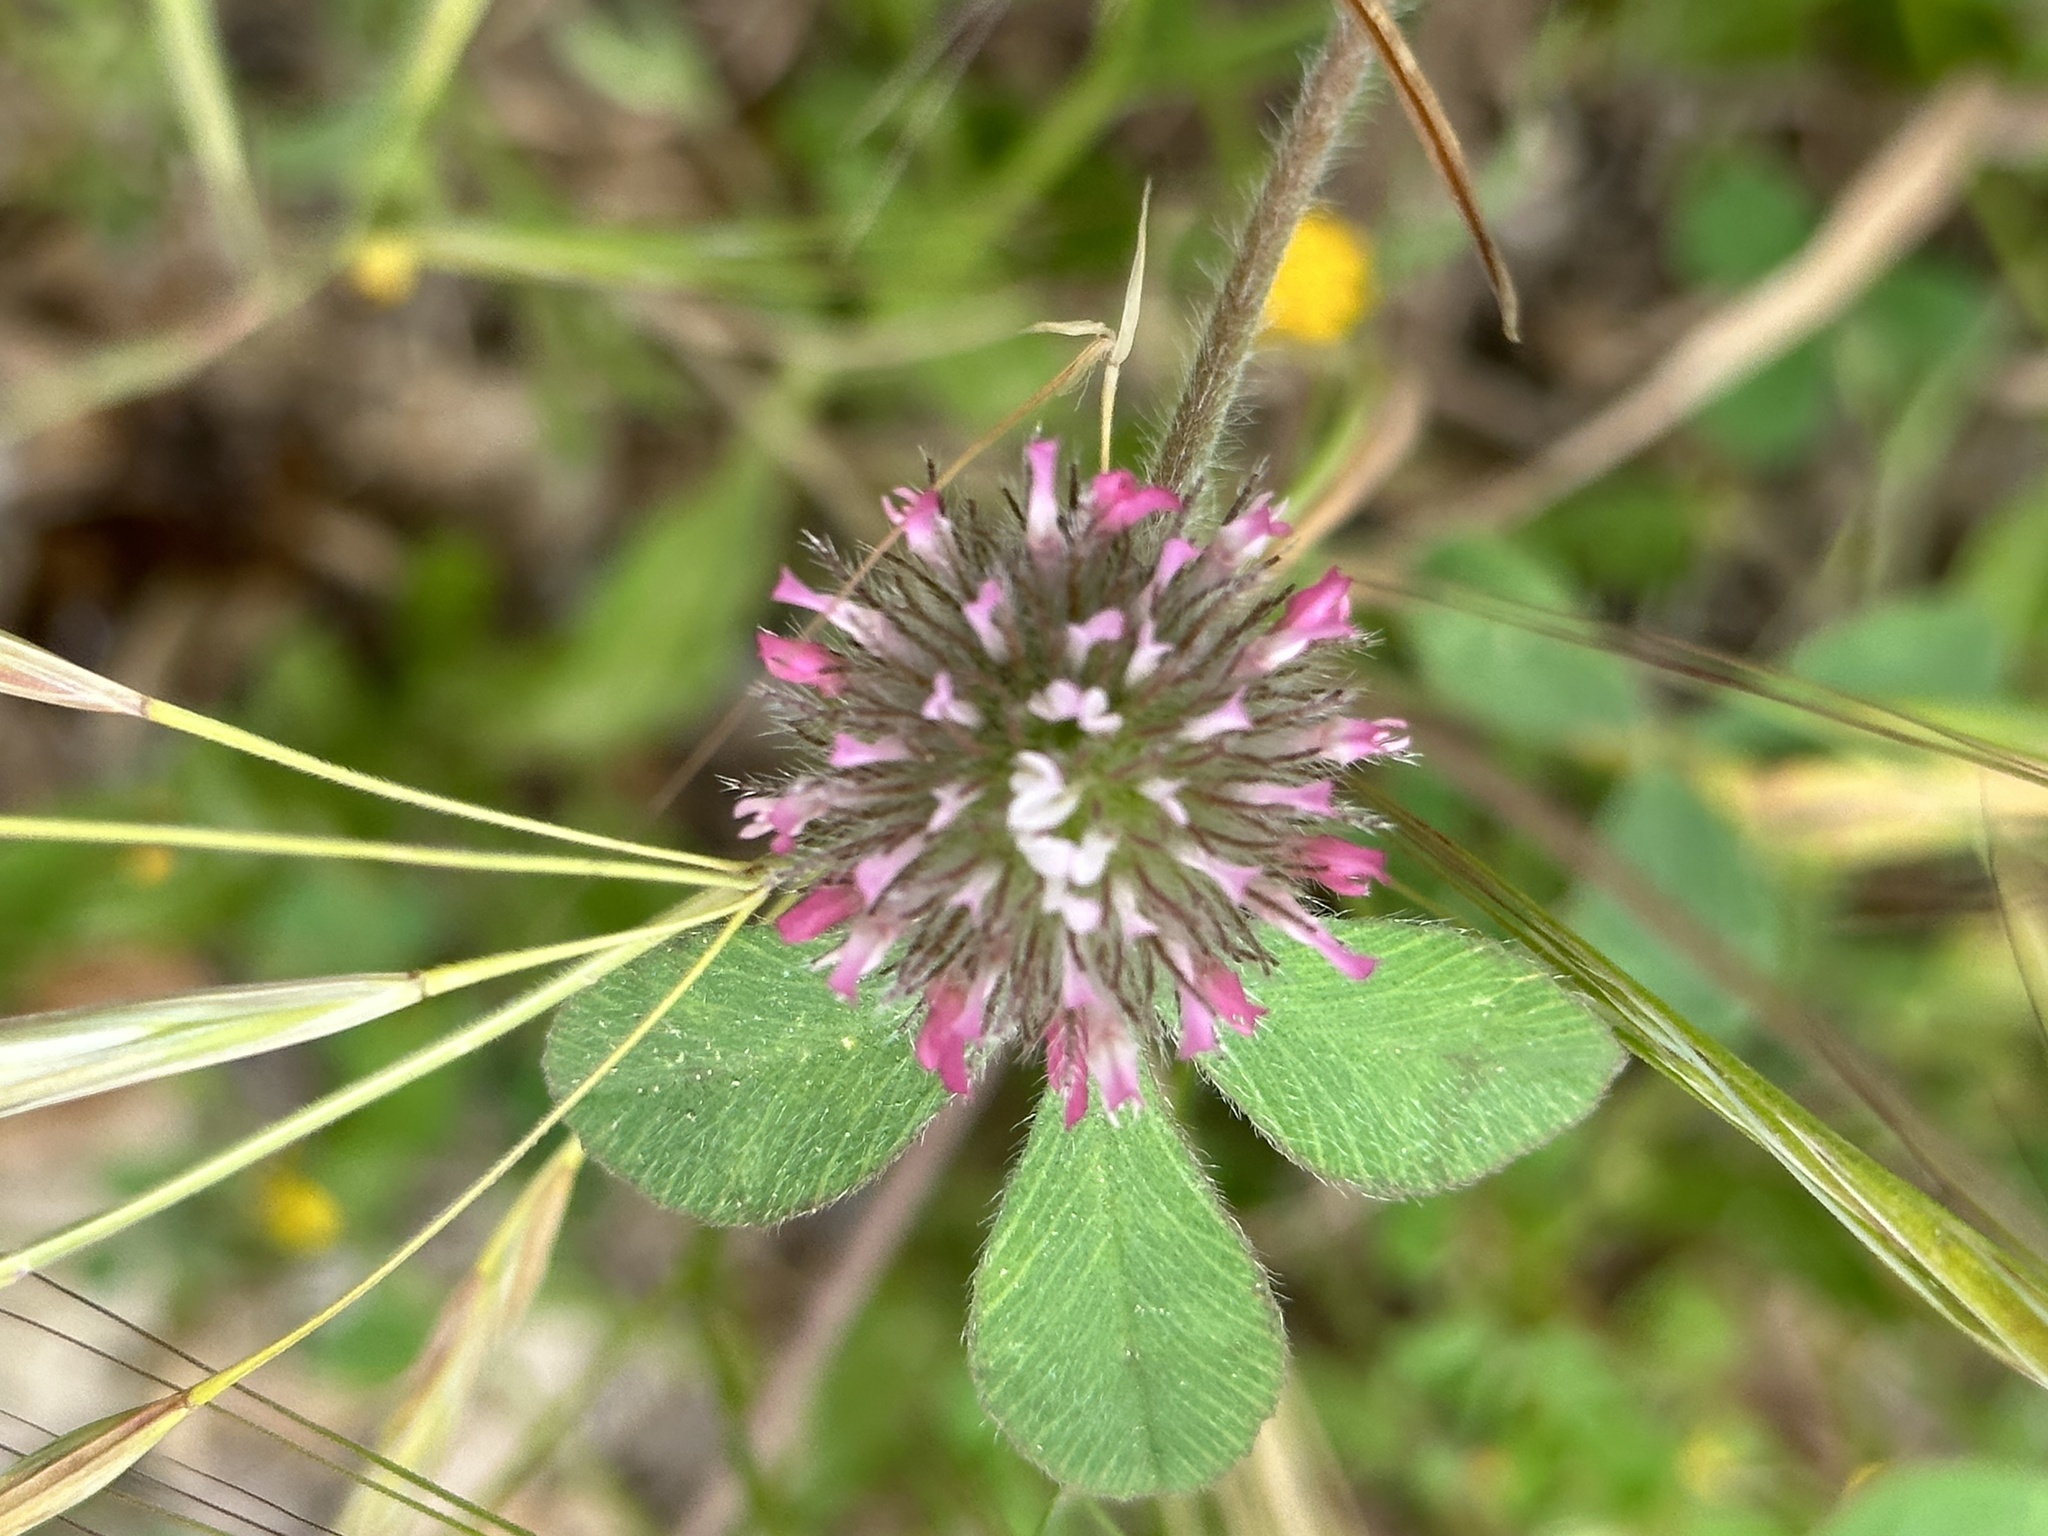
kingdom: Plantae
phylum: Tracheophyta
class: Magnoliopsida
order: Fabales
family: Fabaceae
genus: Trifolium
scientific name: Trifolium hirtum
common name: Rose clover
